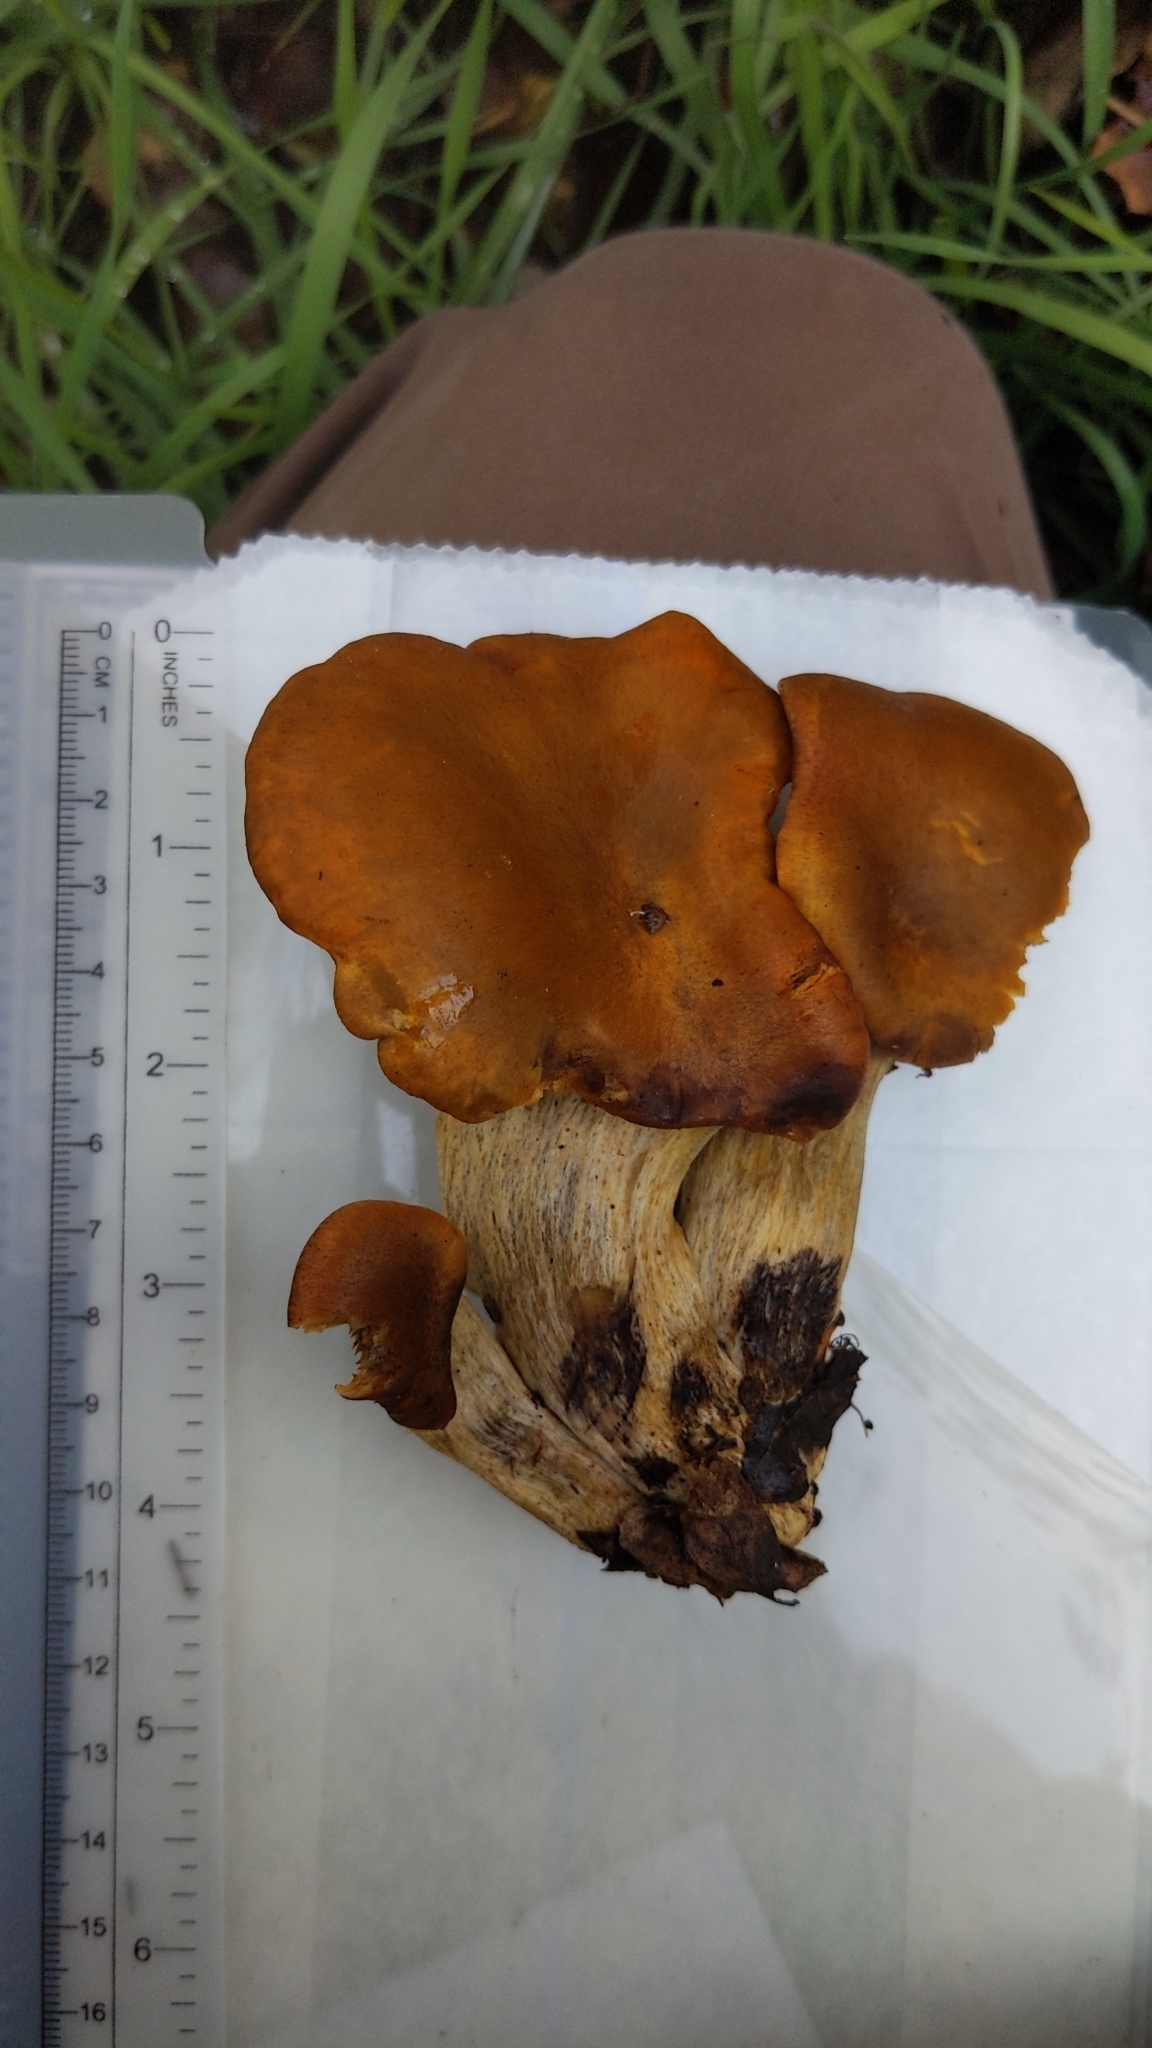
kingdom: Fungi
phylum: Basidiomycota
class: Agaricomycetes
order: Agaricales
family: Omphalotaceae
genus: Omphalotus
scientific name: Omphalotus olivascens
